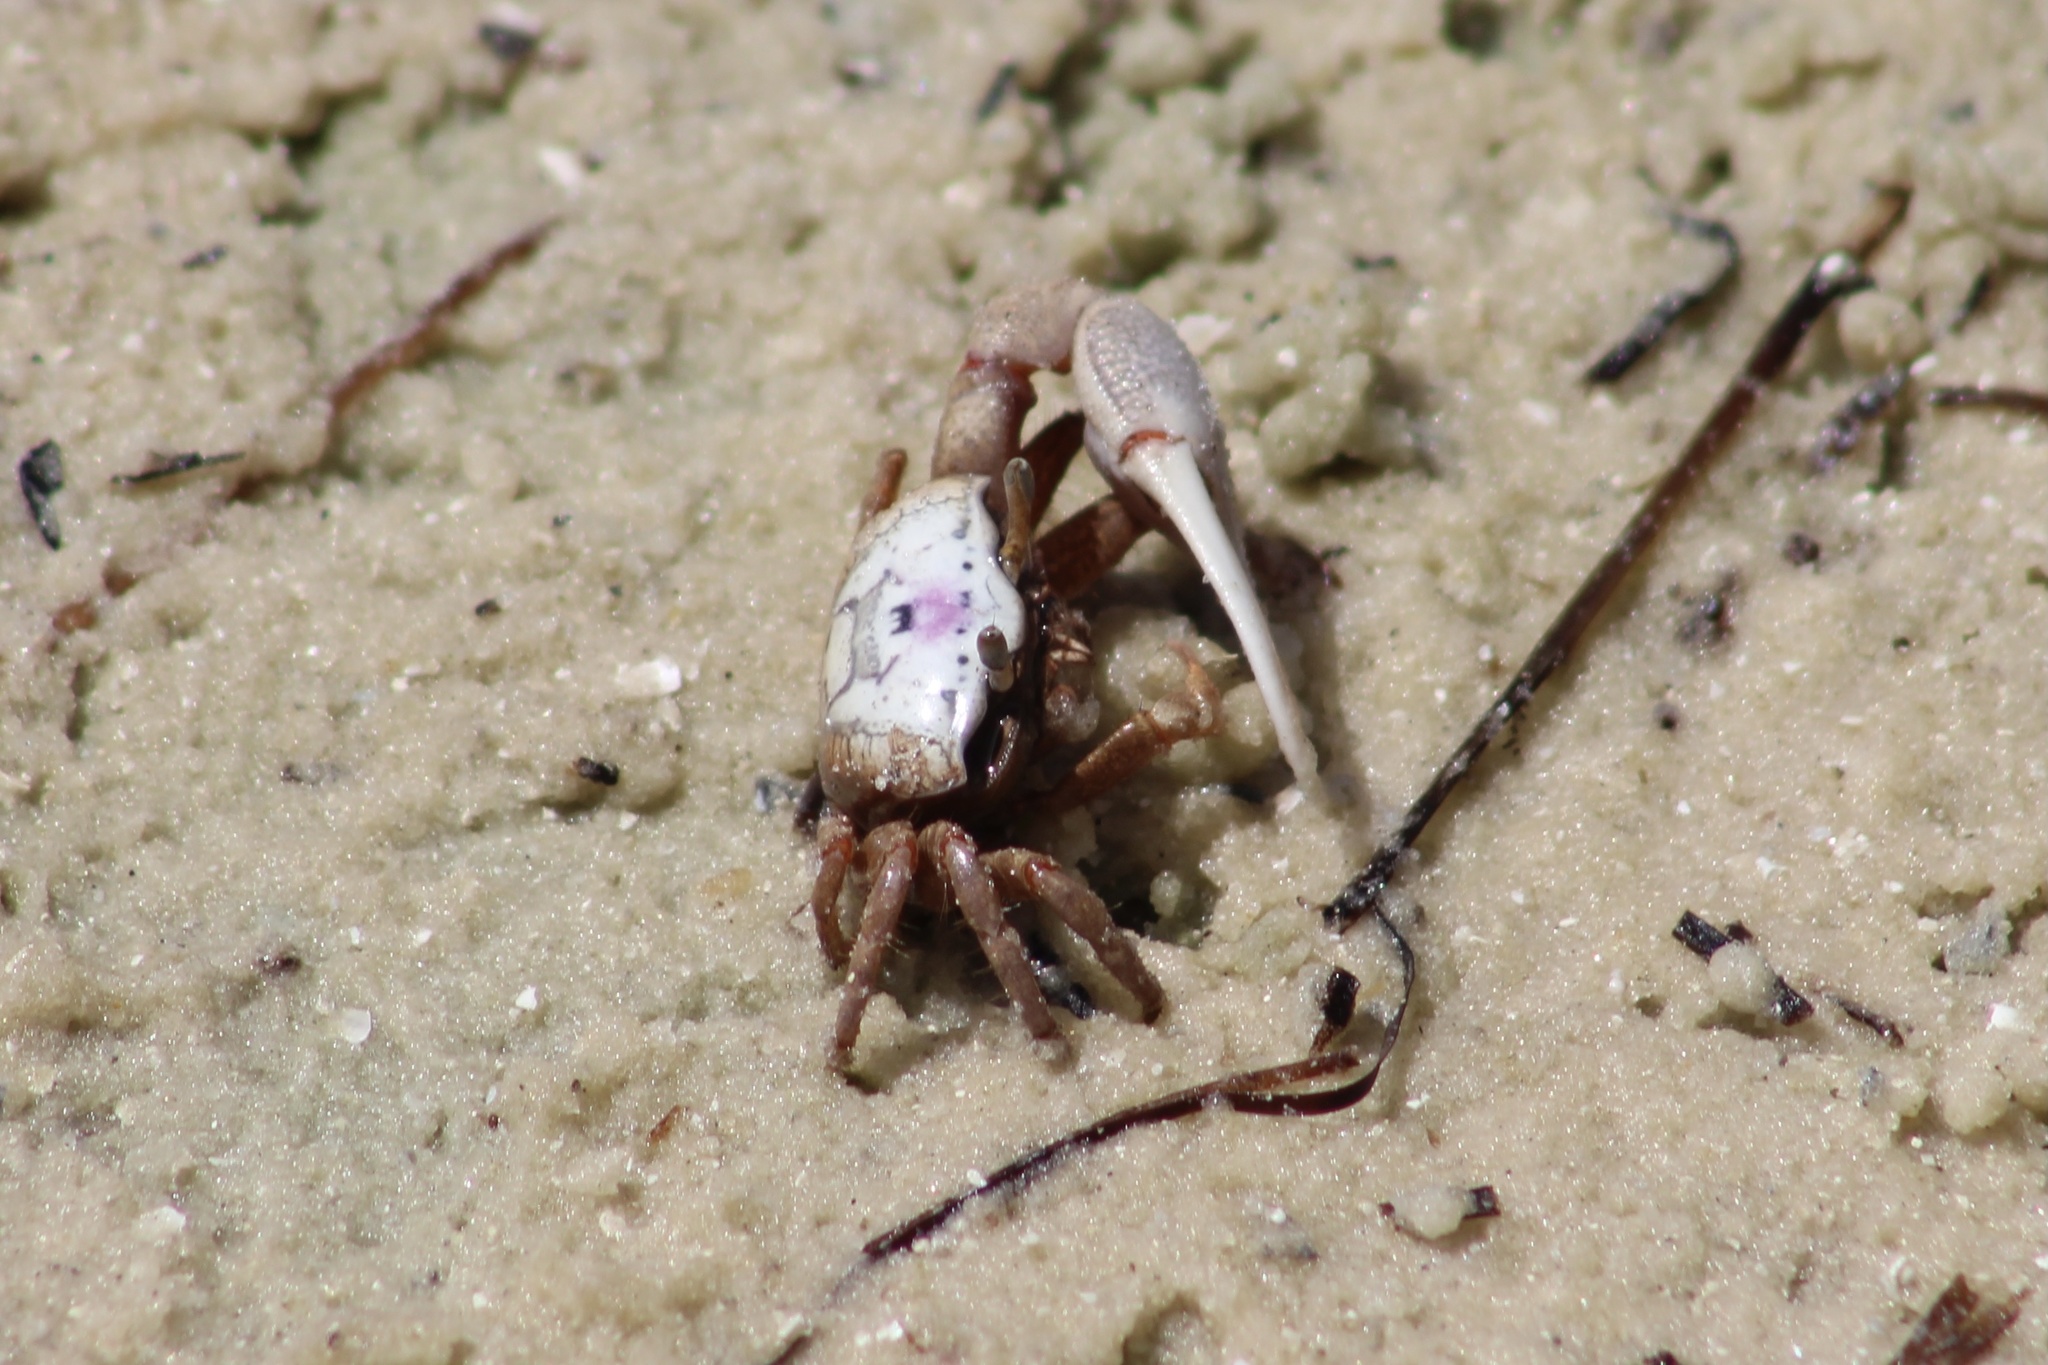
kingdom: Animalia
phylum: Arthropoda
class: Malacostraca
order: Decapoda
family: Ocypodidae
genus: Leptuca
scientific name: Leptuca pugilator
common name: Atlantic sand fiddler crab
